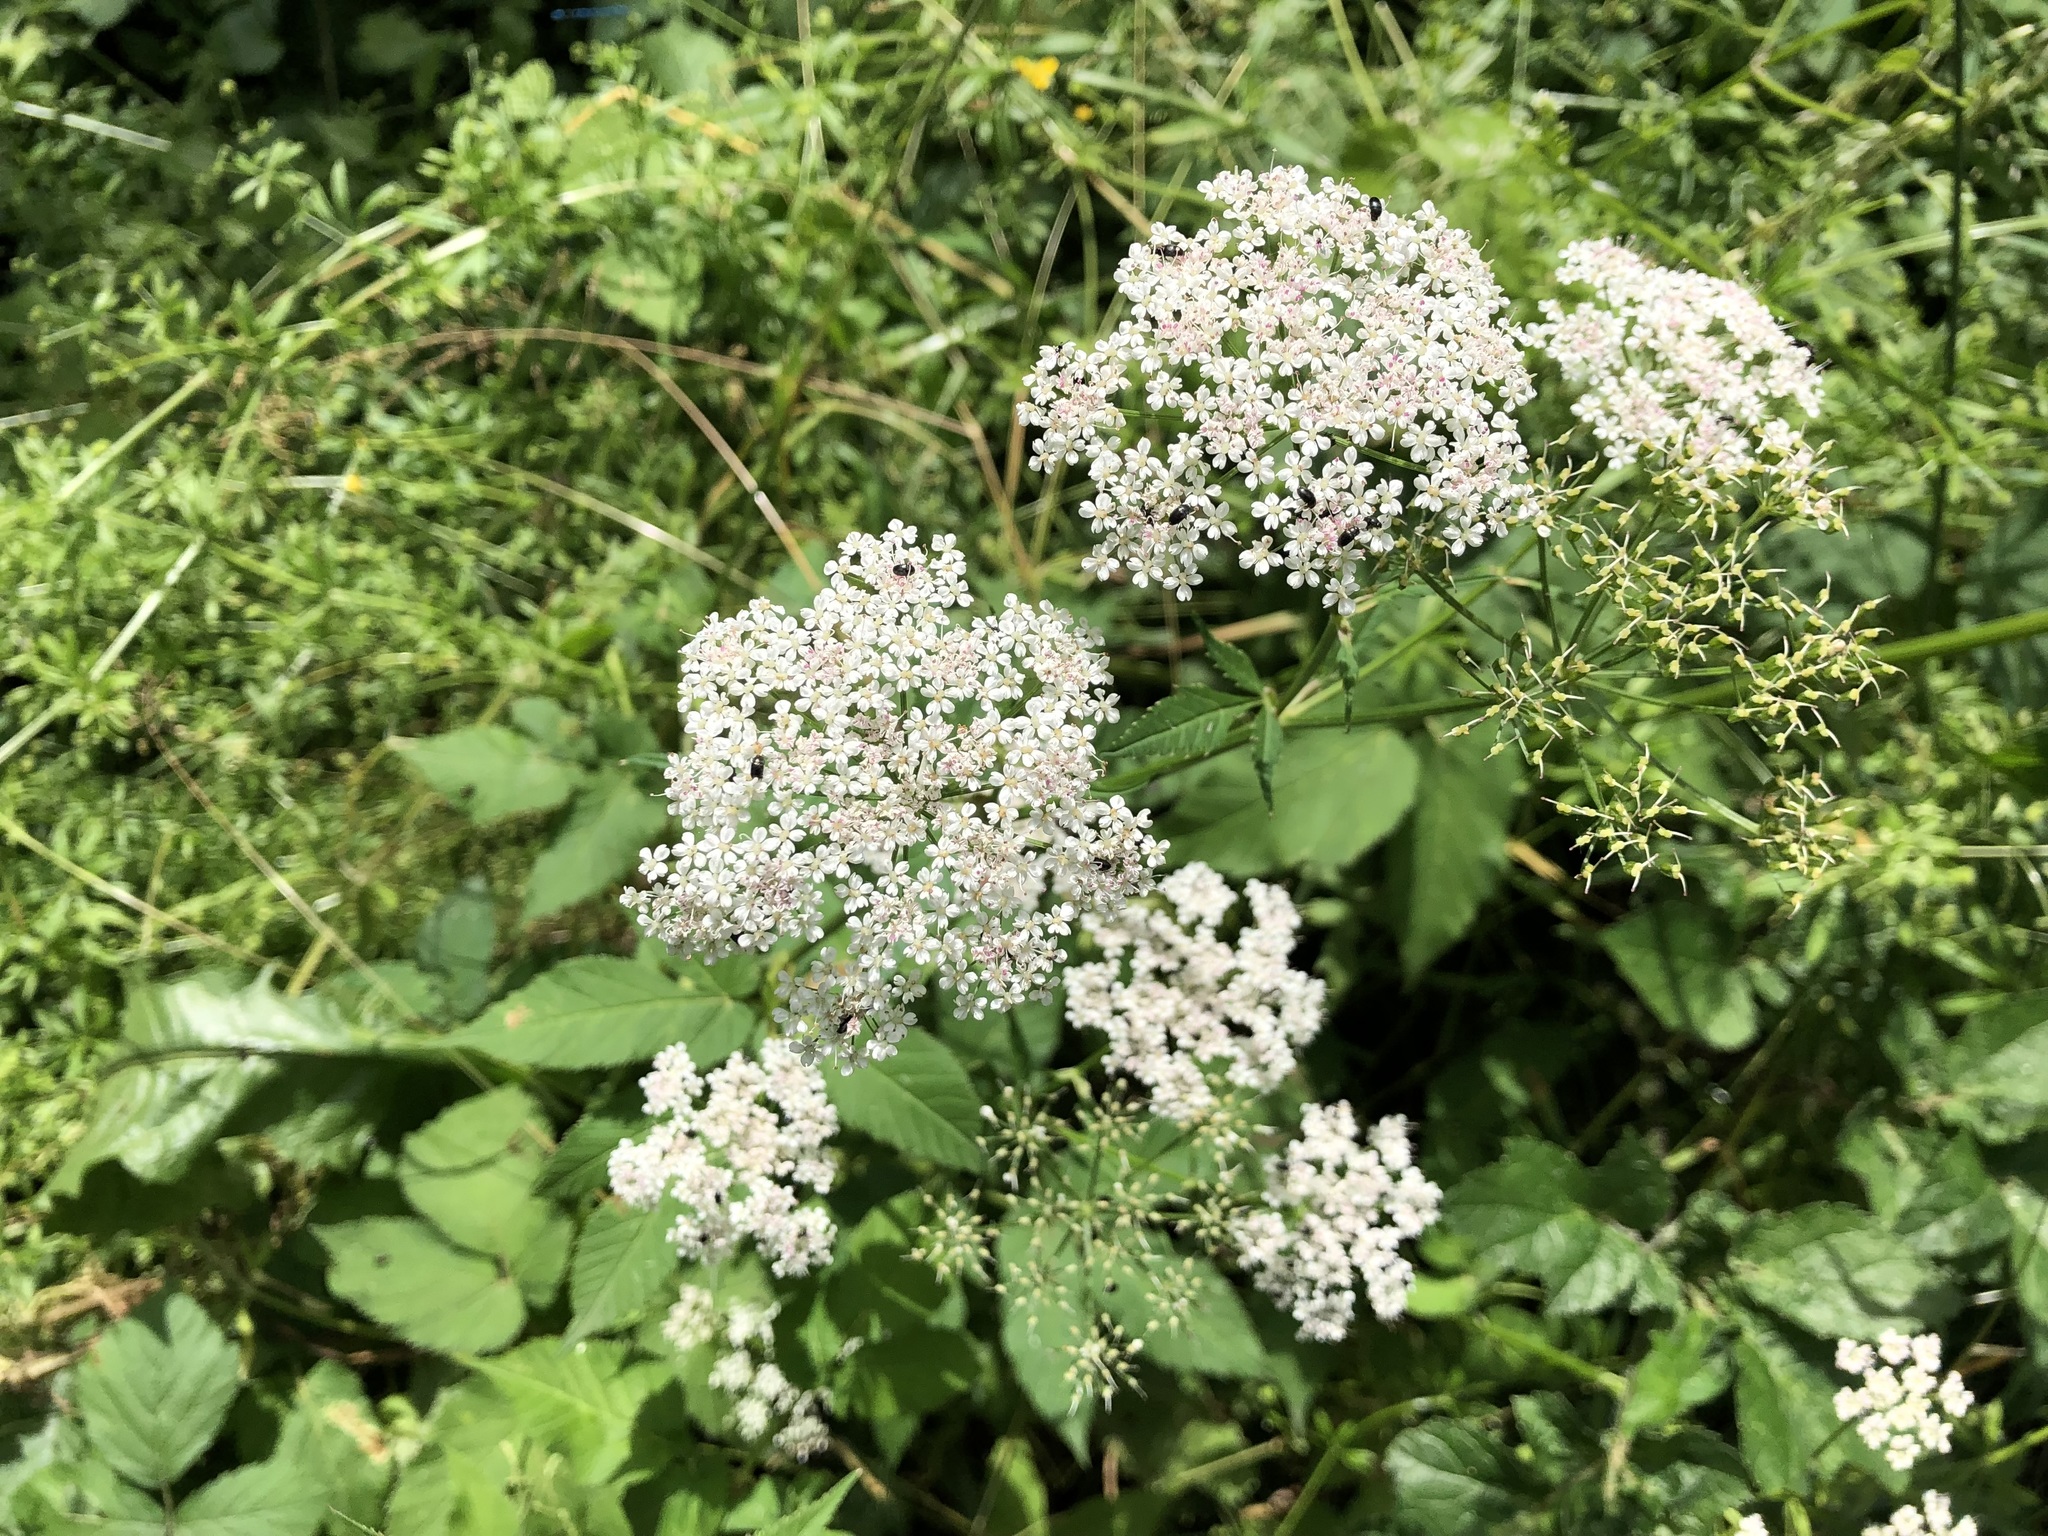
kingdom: Plantae
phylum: Tracheophyta
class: Magnoliopsida
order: Apiales
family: Apiaceae
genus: Aegopodium
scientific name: Aegopodium podagraria
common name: Ground-elder
